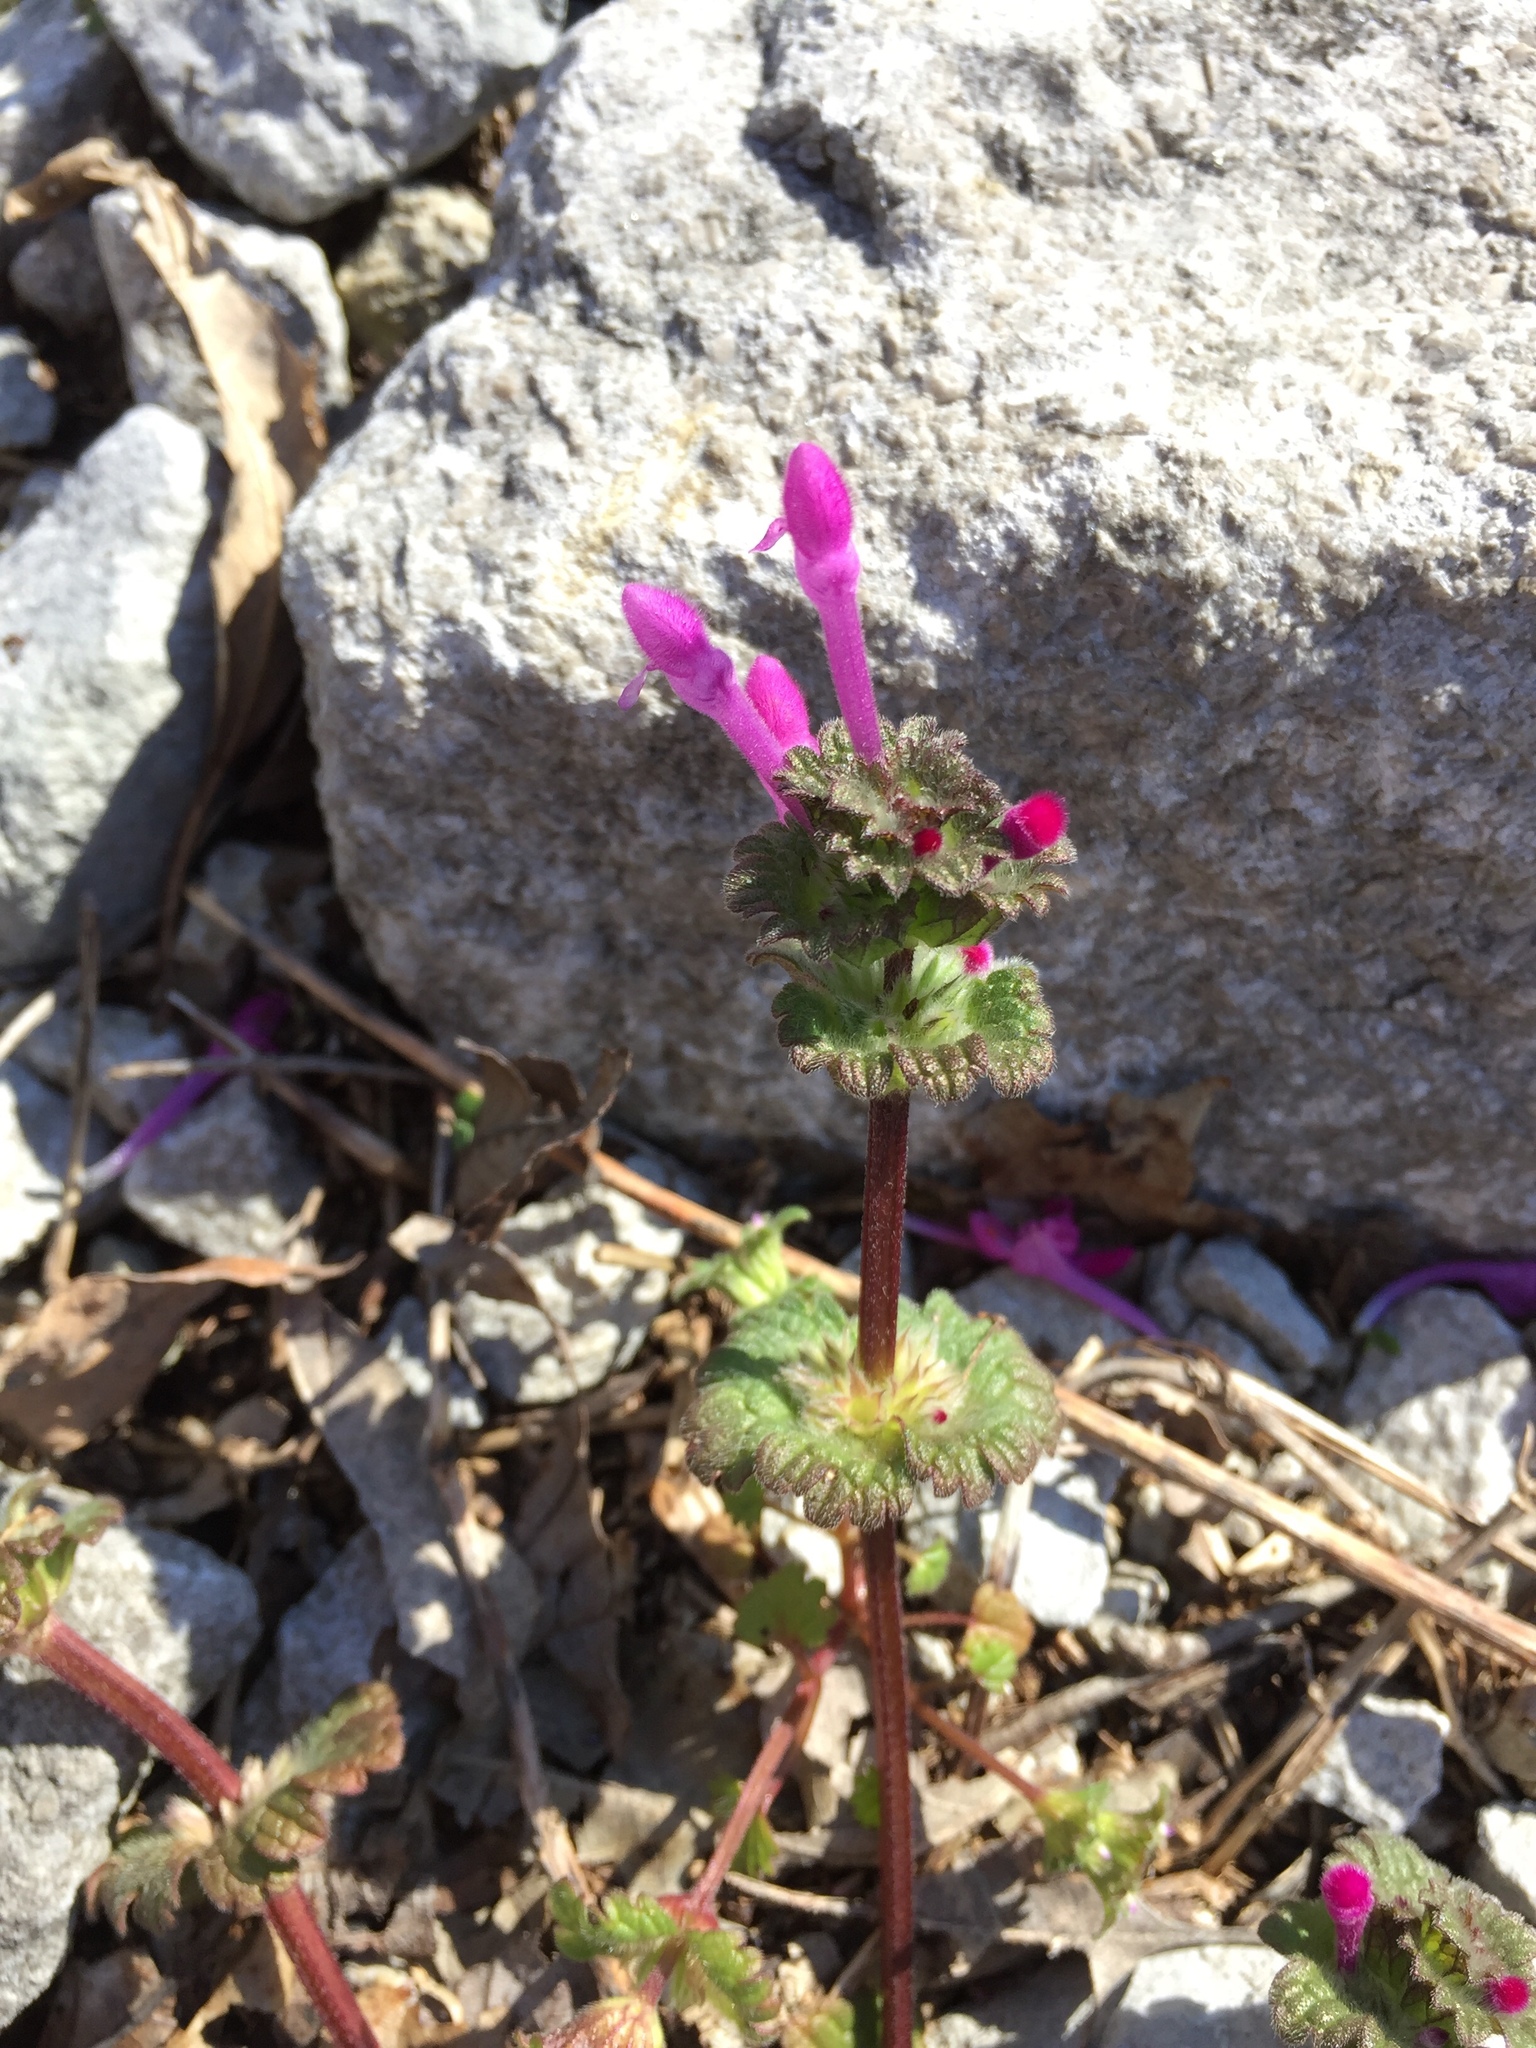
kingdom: Plantae
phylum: Tracheophyta
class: Magnoliopsida
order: Lamiales
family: Lamiaceae
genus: Lamium
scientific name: Lamium amplexicaule
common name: Henbit dead-nettle
